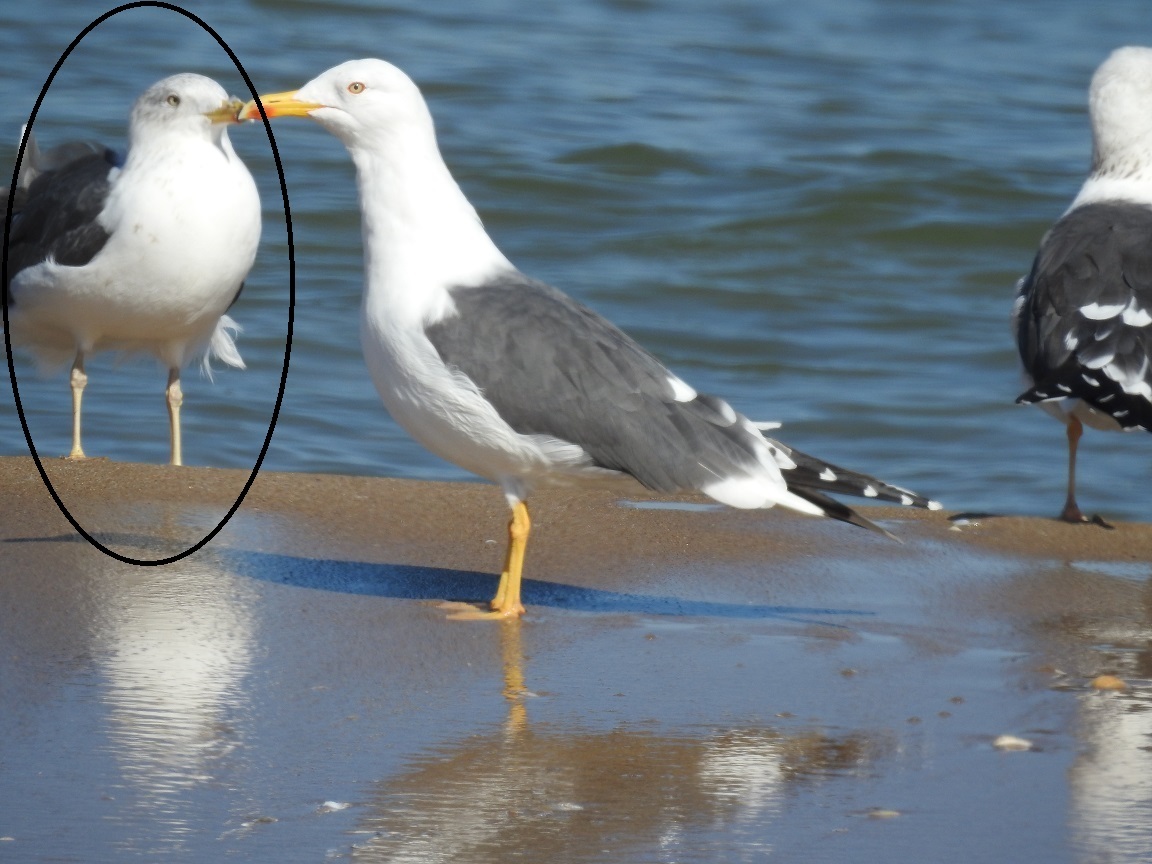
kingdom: Animalia
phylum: Chordata
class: Aves
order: Charadriiformes
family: Laridae
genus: Larus
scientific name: Larus fuscus
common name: Lesser black-backed gull
